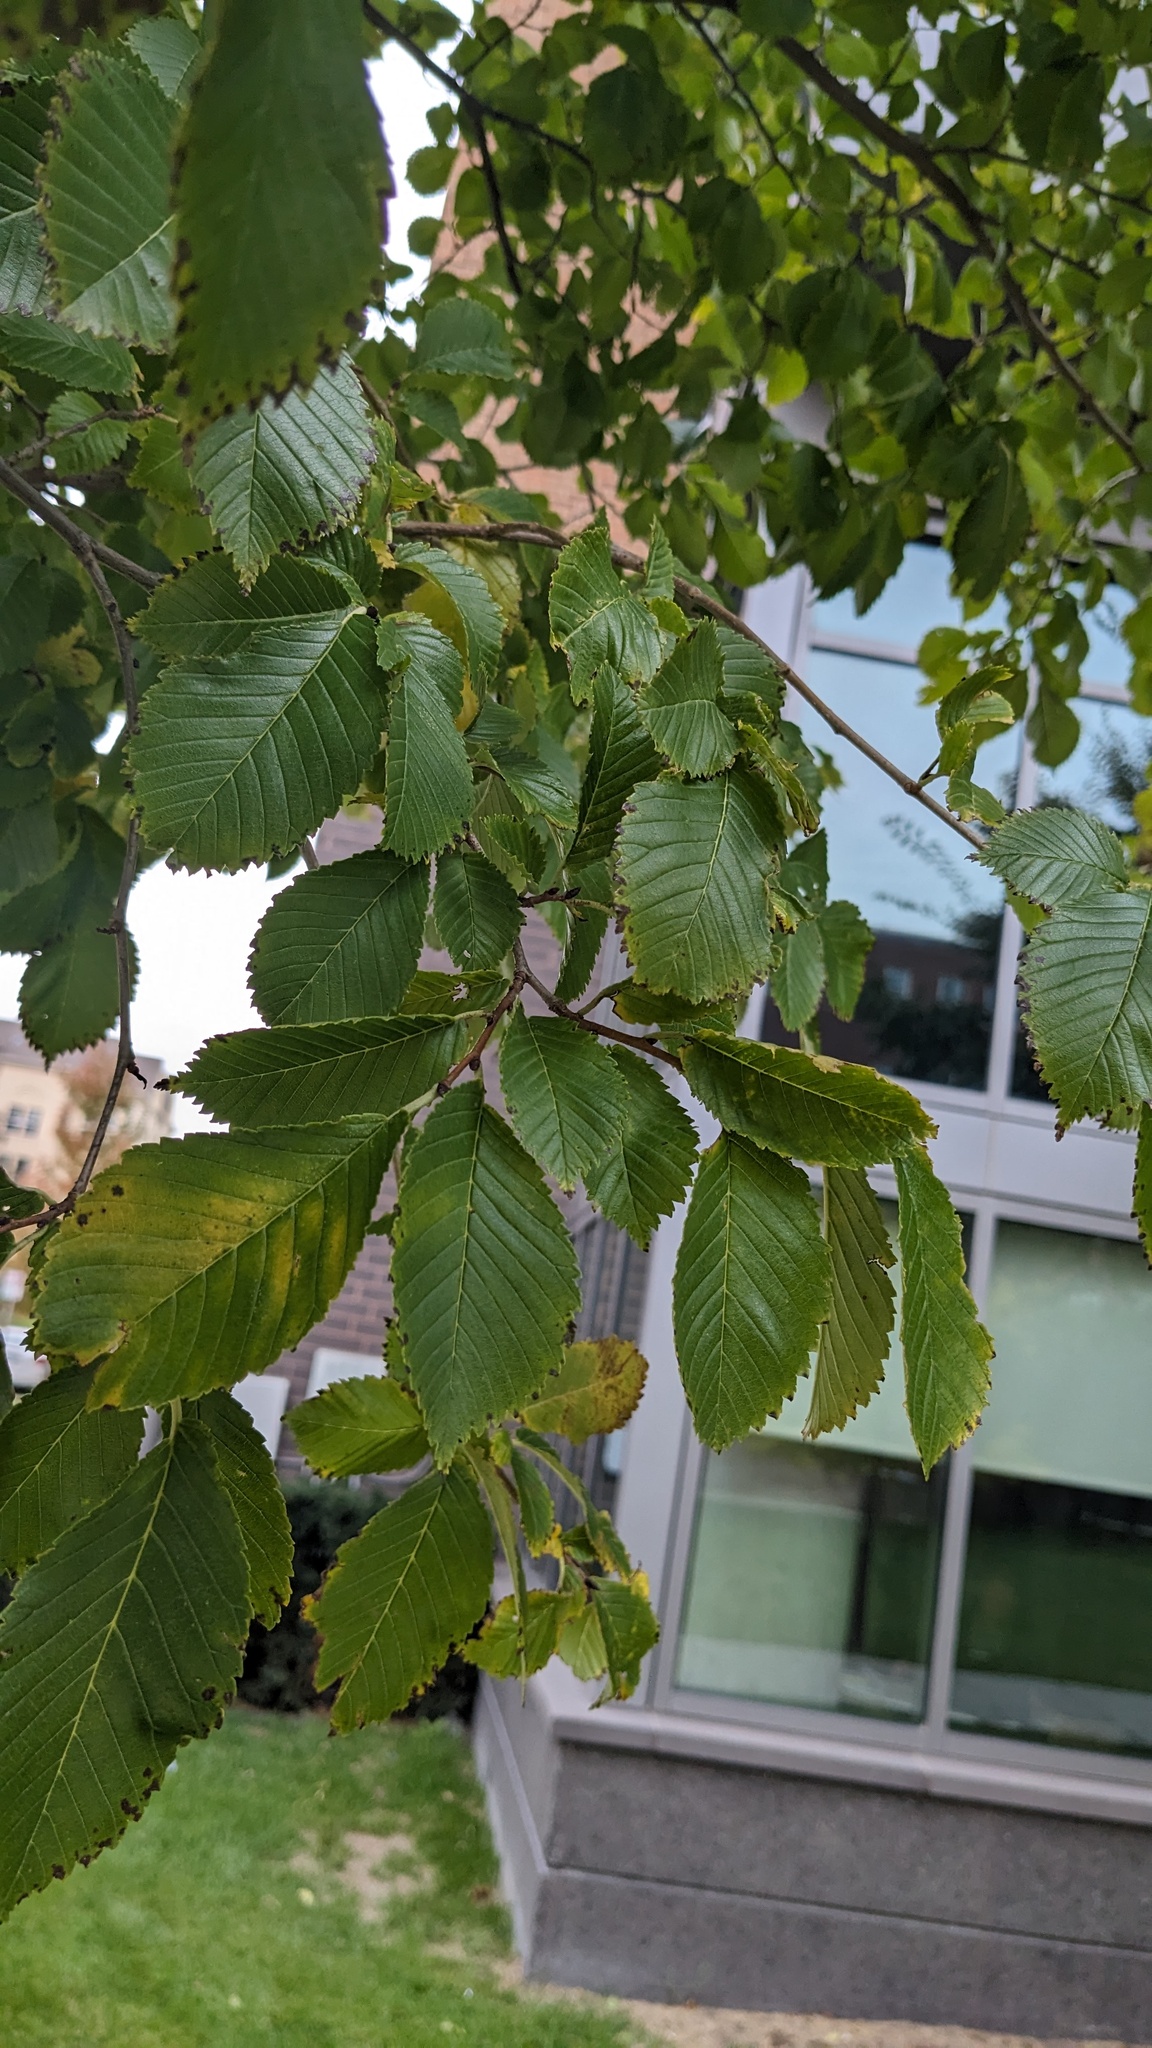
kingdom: Fungi
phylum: Ascomycota
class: Sordariomycetes
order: Diaporthales
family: Sydowiellaceae
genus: Stegophora
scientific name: Stegophora ulmea
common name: Black spot of elm
